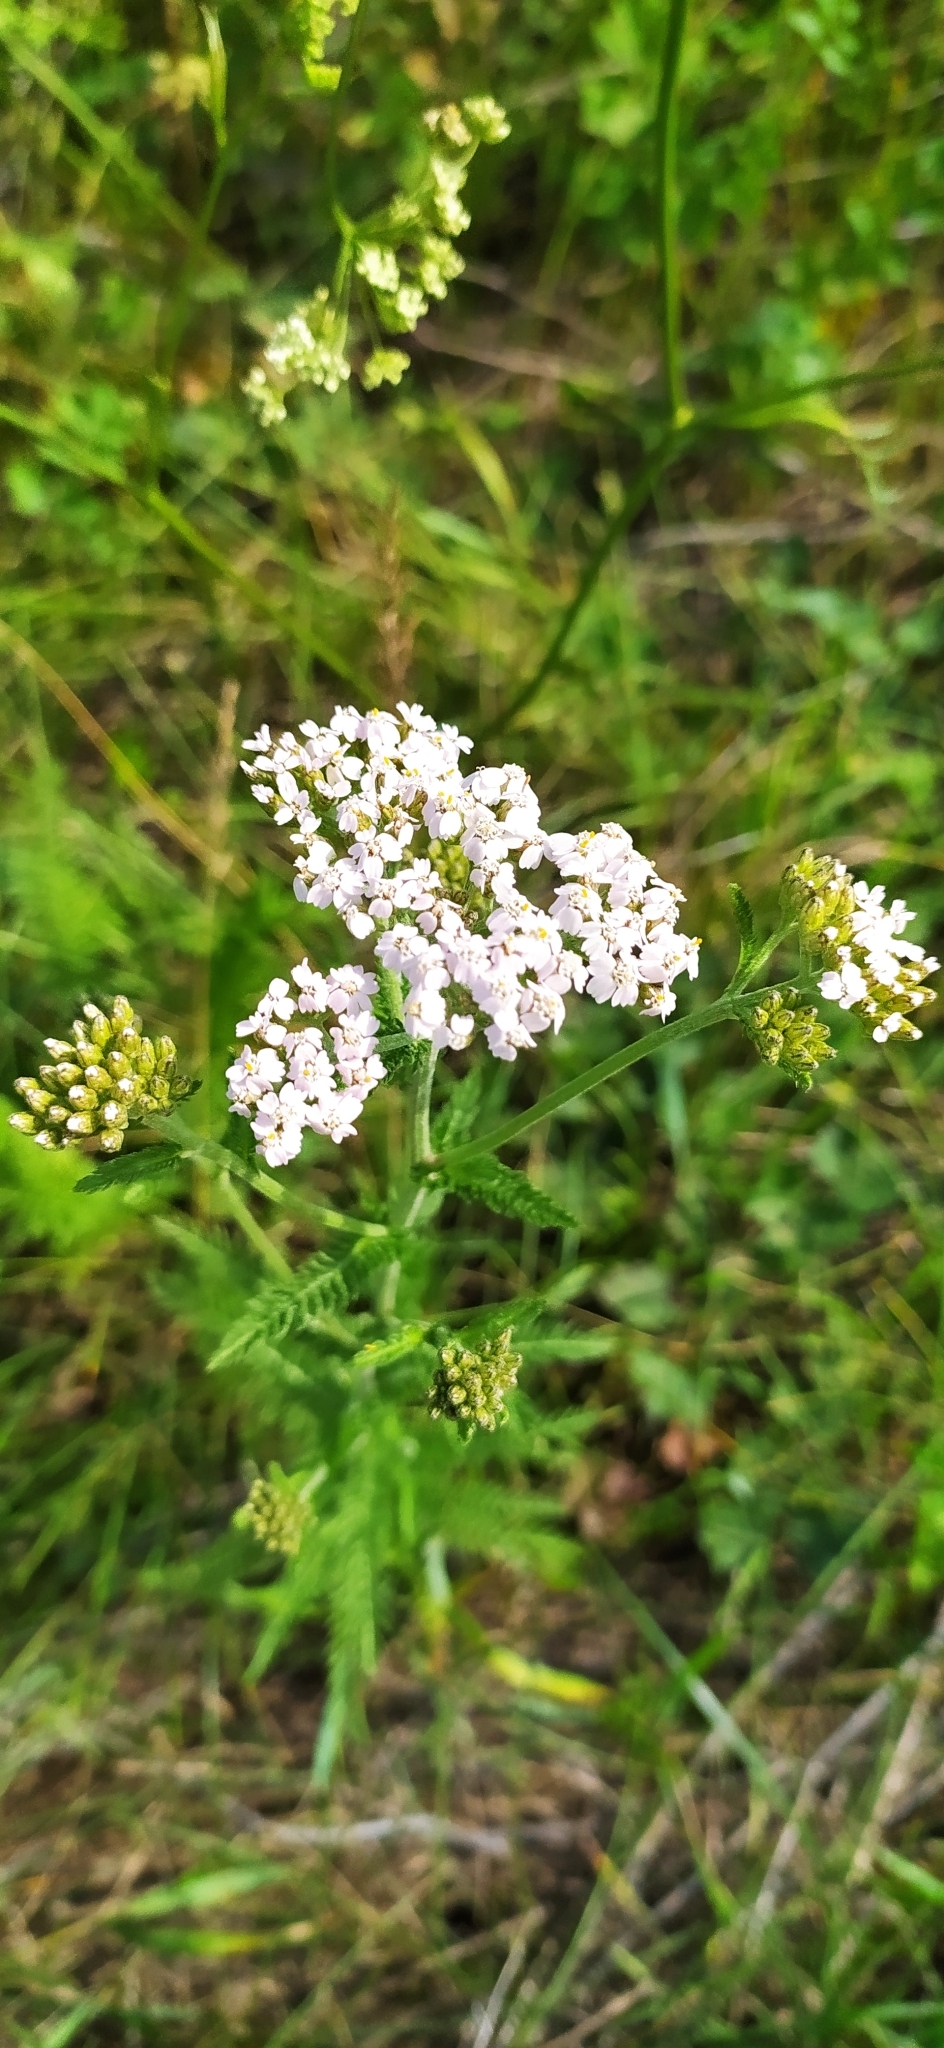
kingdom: Plantae
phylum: Tracheophyta
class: Magnoliopsida
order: Asterales
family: Asteraceae
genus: Achillea
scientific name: Achillea millefolium
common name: Yarrow
